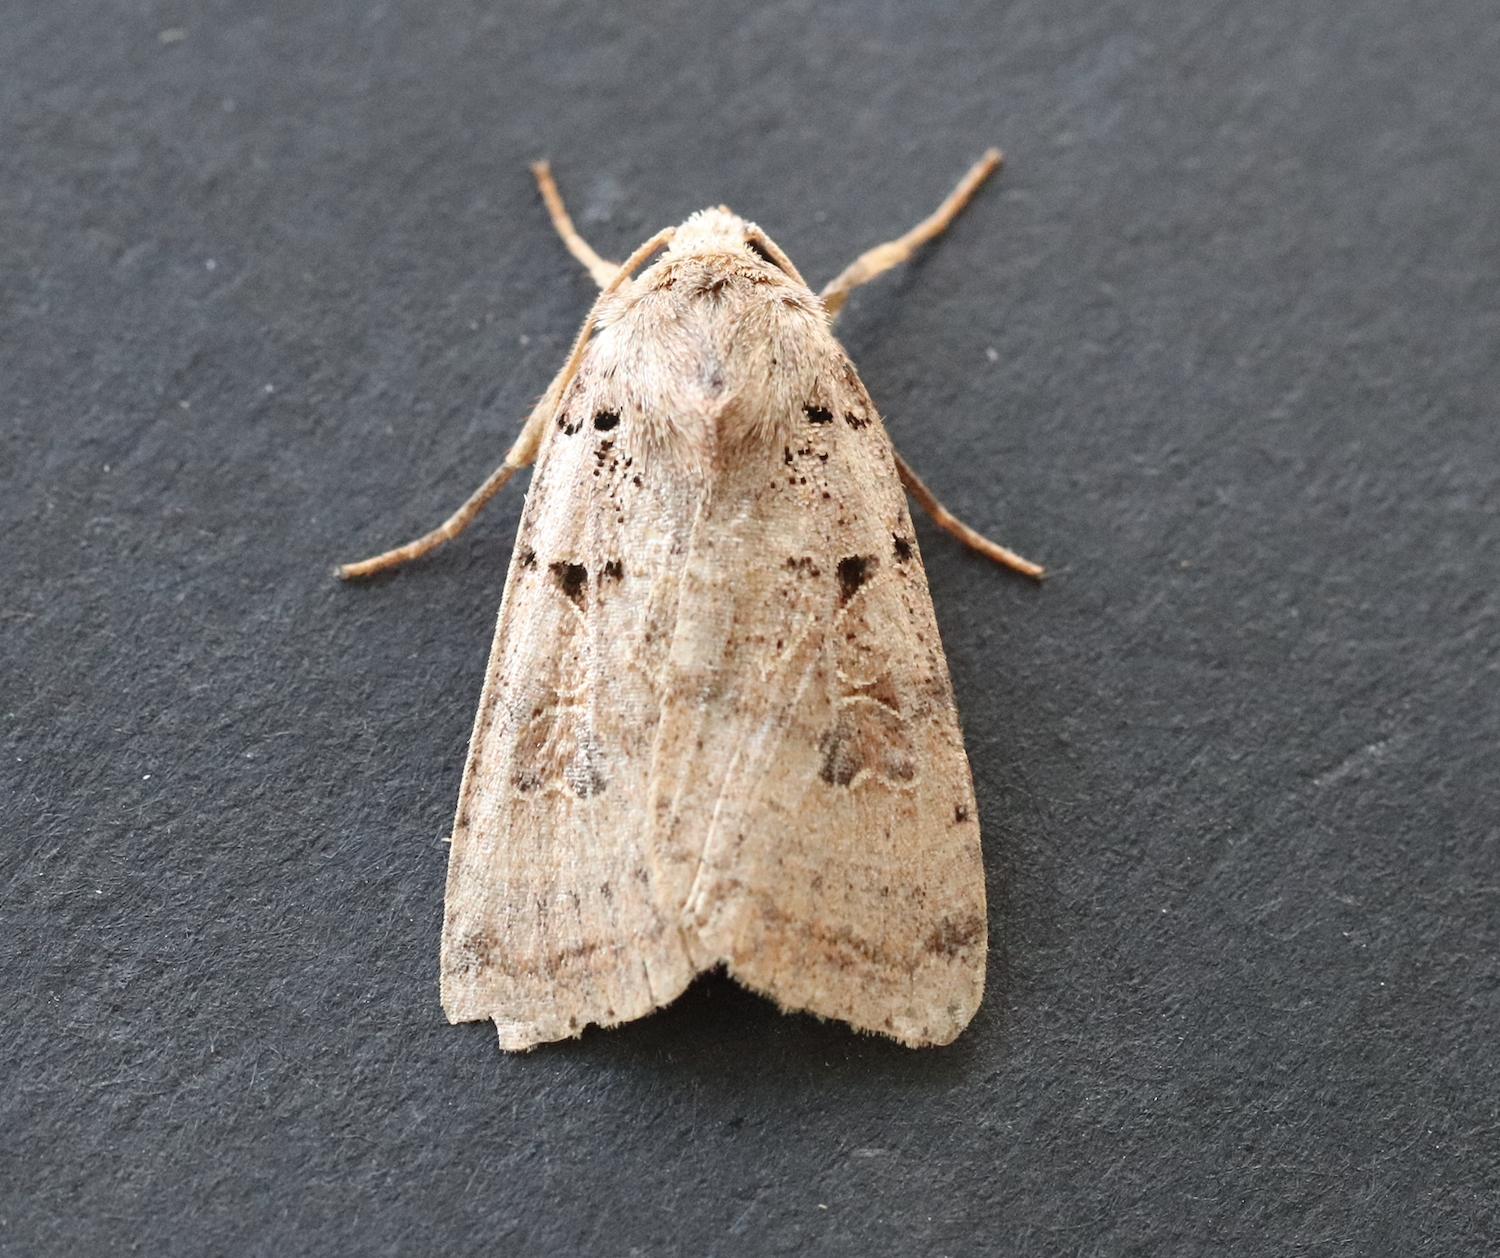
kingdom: Animalia
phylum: Arthropoda
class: Insecta
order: Lepidoptera
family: Noctuidae
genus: Eugnorisma
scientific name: Eugnorisma glareosa
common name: Autumnal rustic
